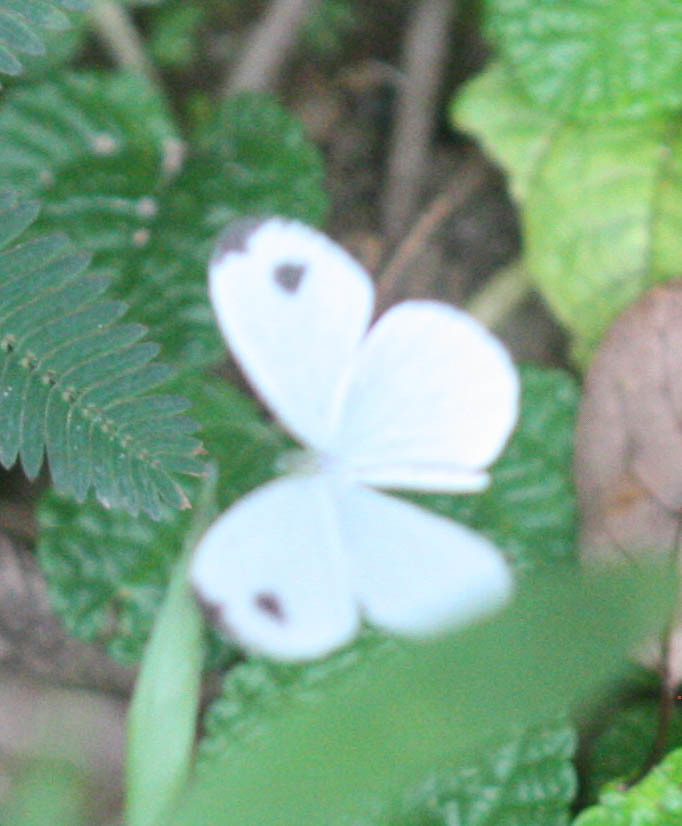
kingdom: Animalia
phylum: Arthropoda
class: Insecta
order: Lepidoptera
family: Pieridae
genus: Leptosia
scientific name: Leptosia nina
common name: Psyche
